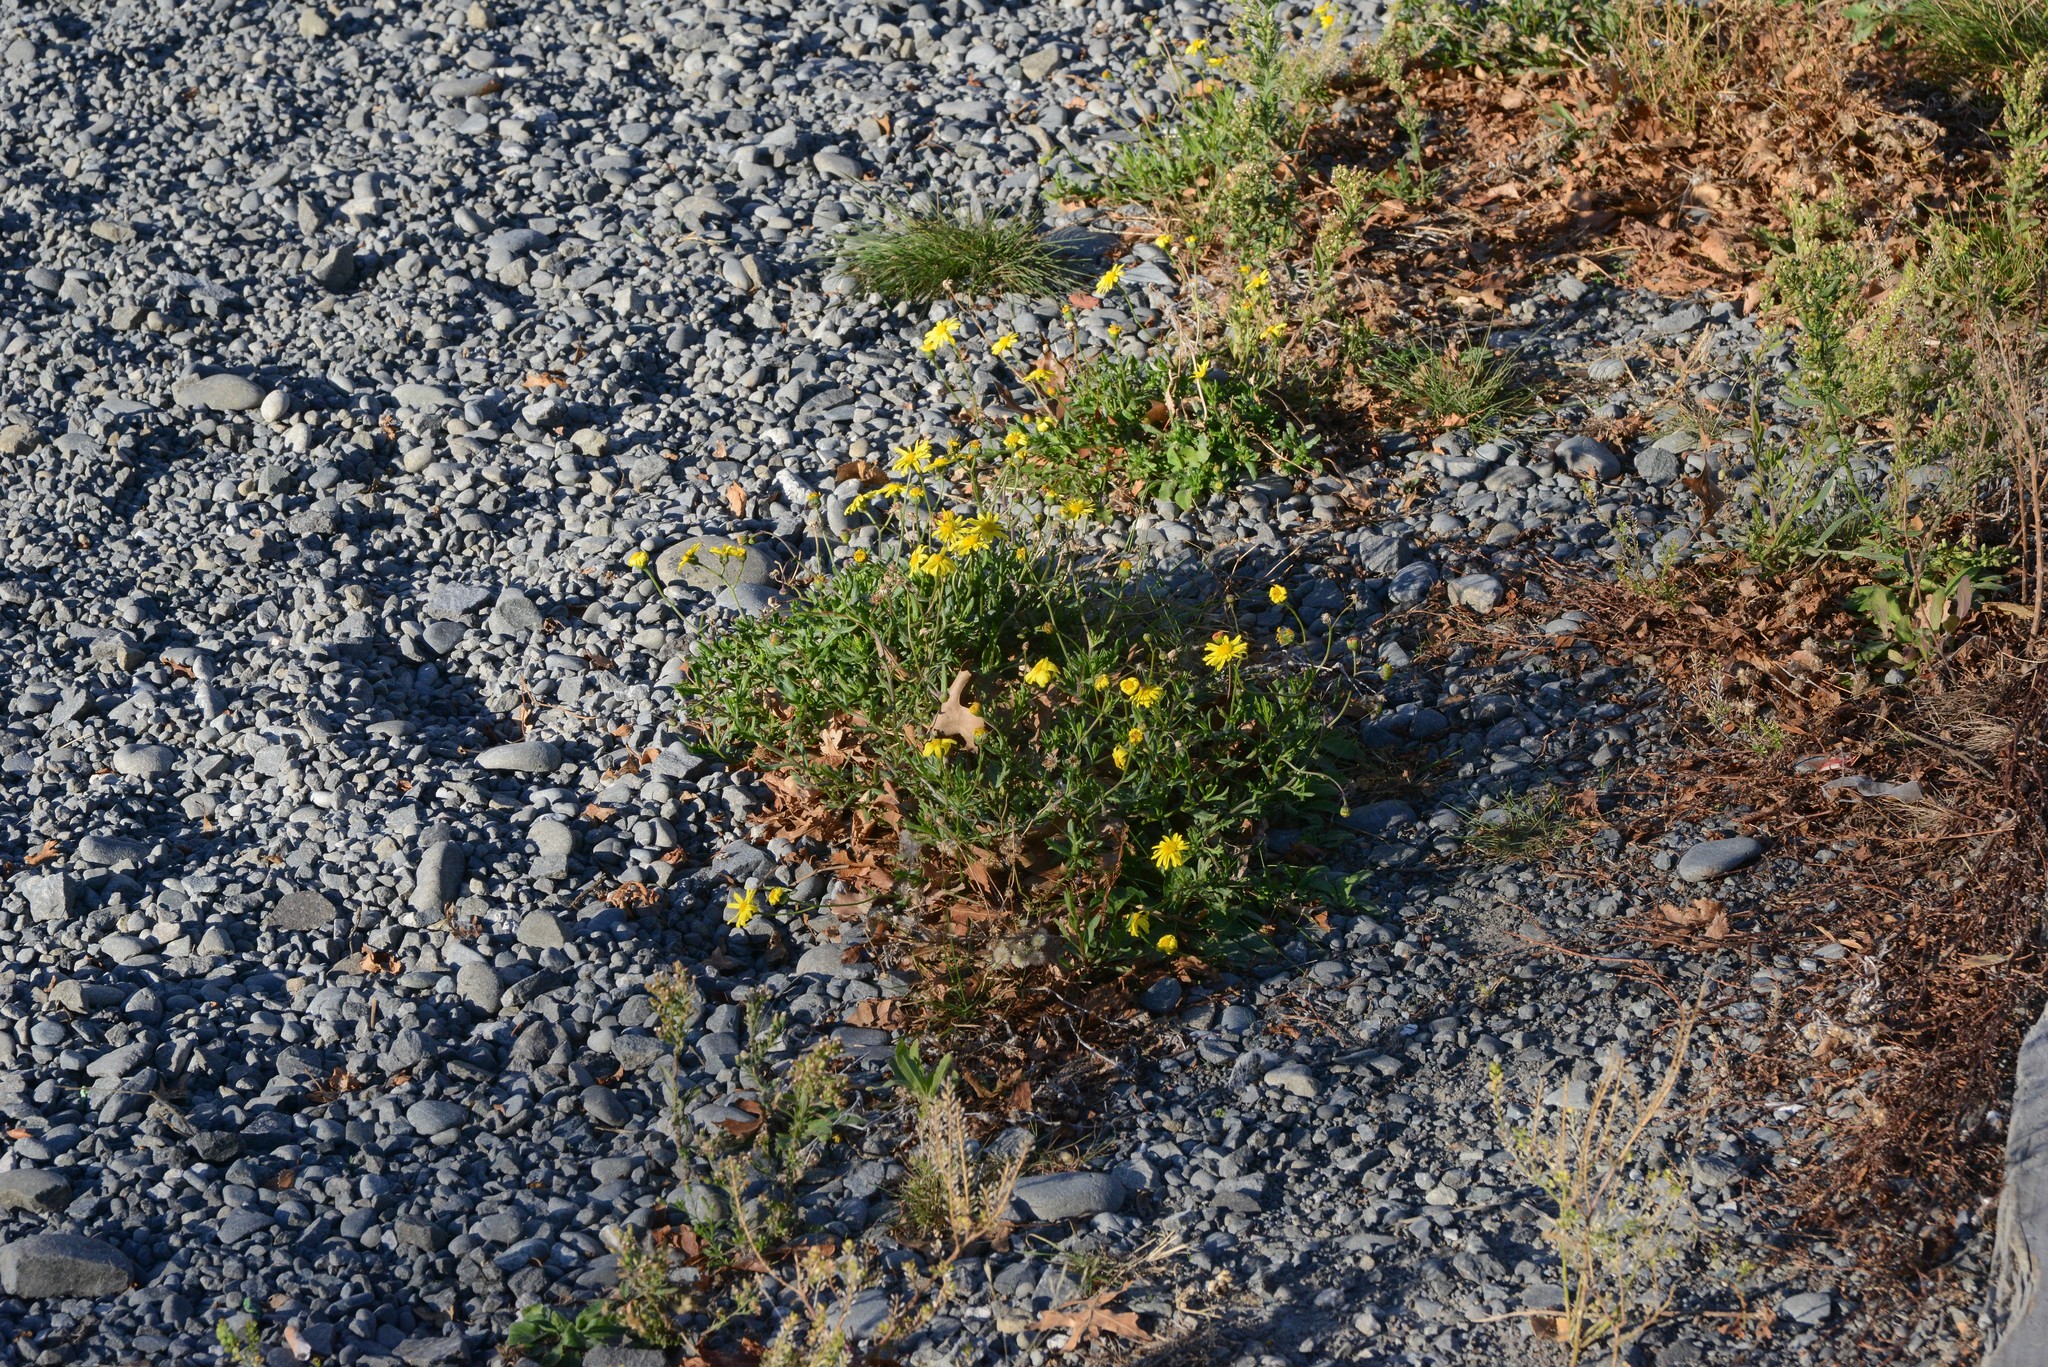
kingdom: Plantae
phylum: Tracheophyta
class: Magnoliopsida
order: Asterales
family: Asteraceae
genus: Senecio
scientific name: Senecio skirrhodon
